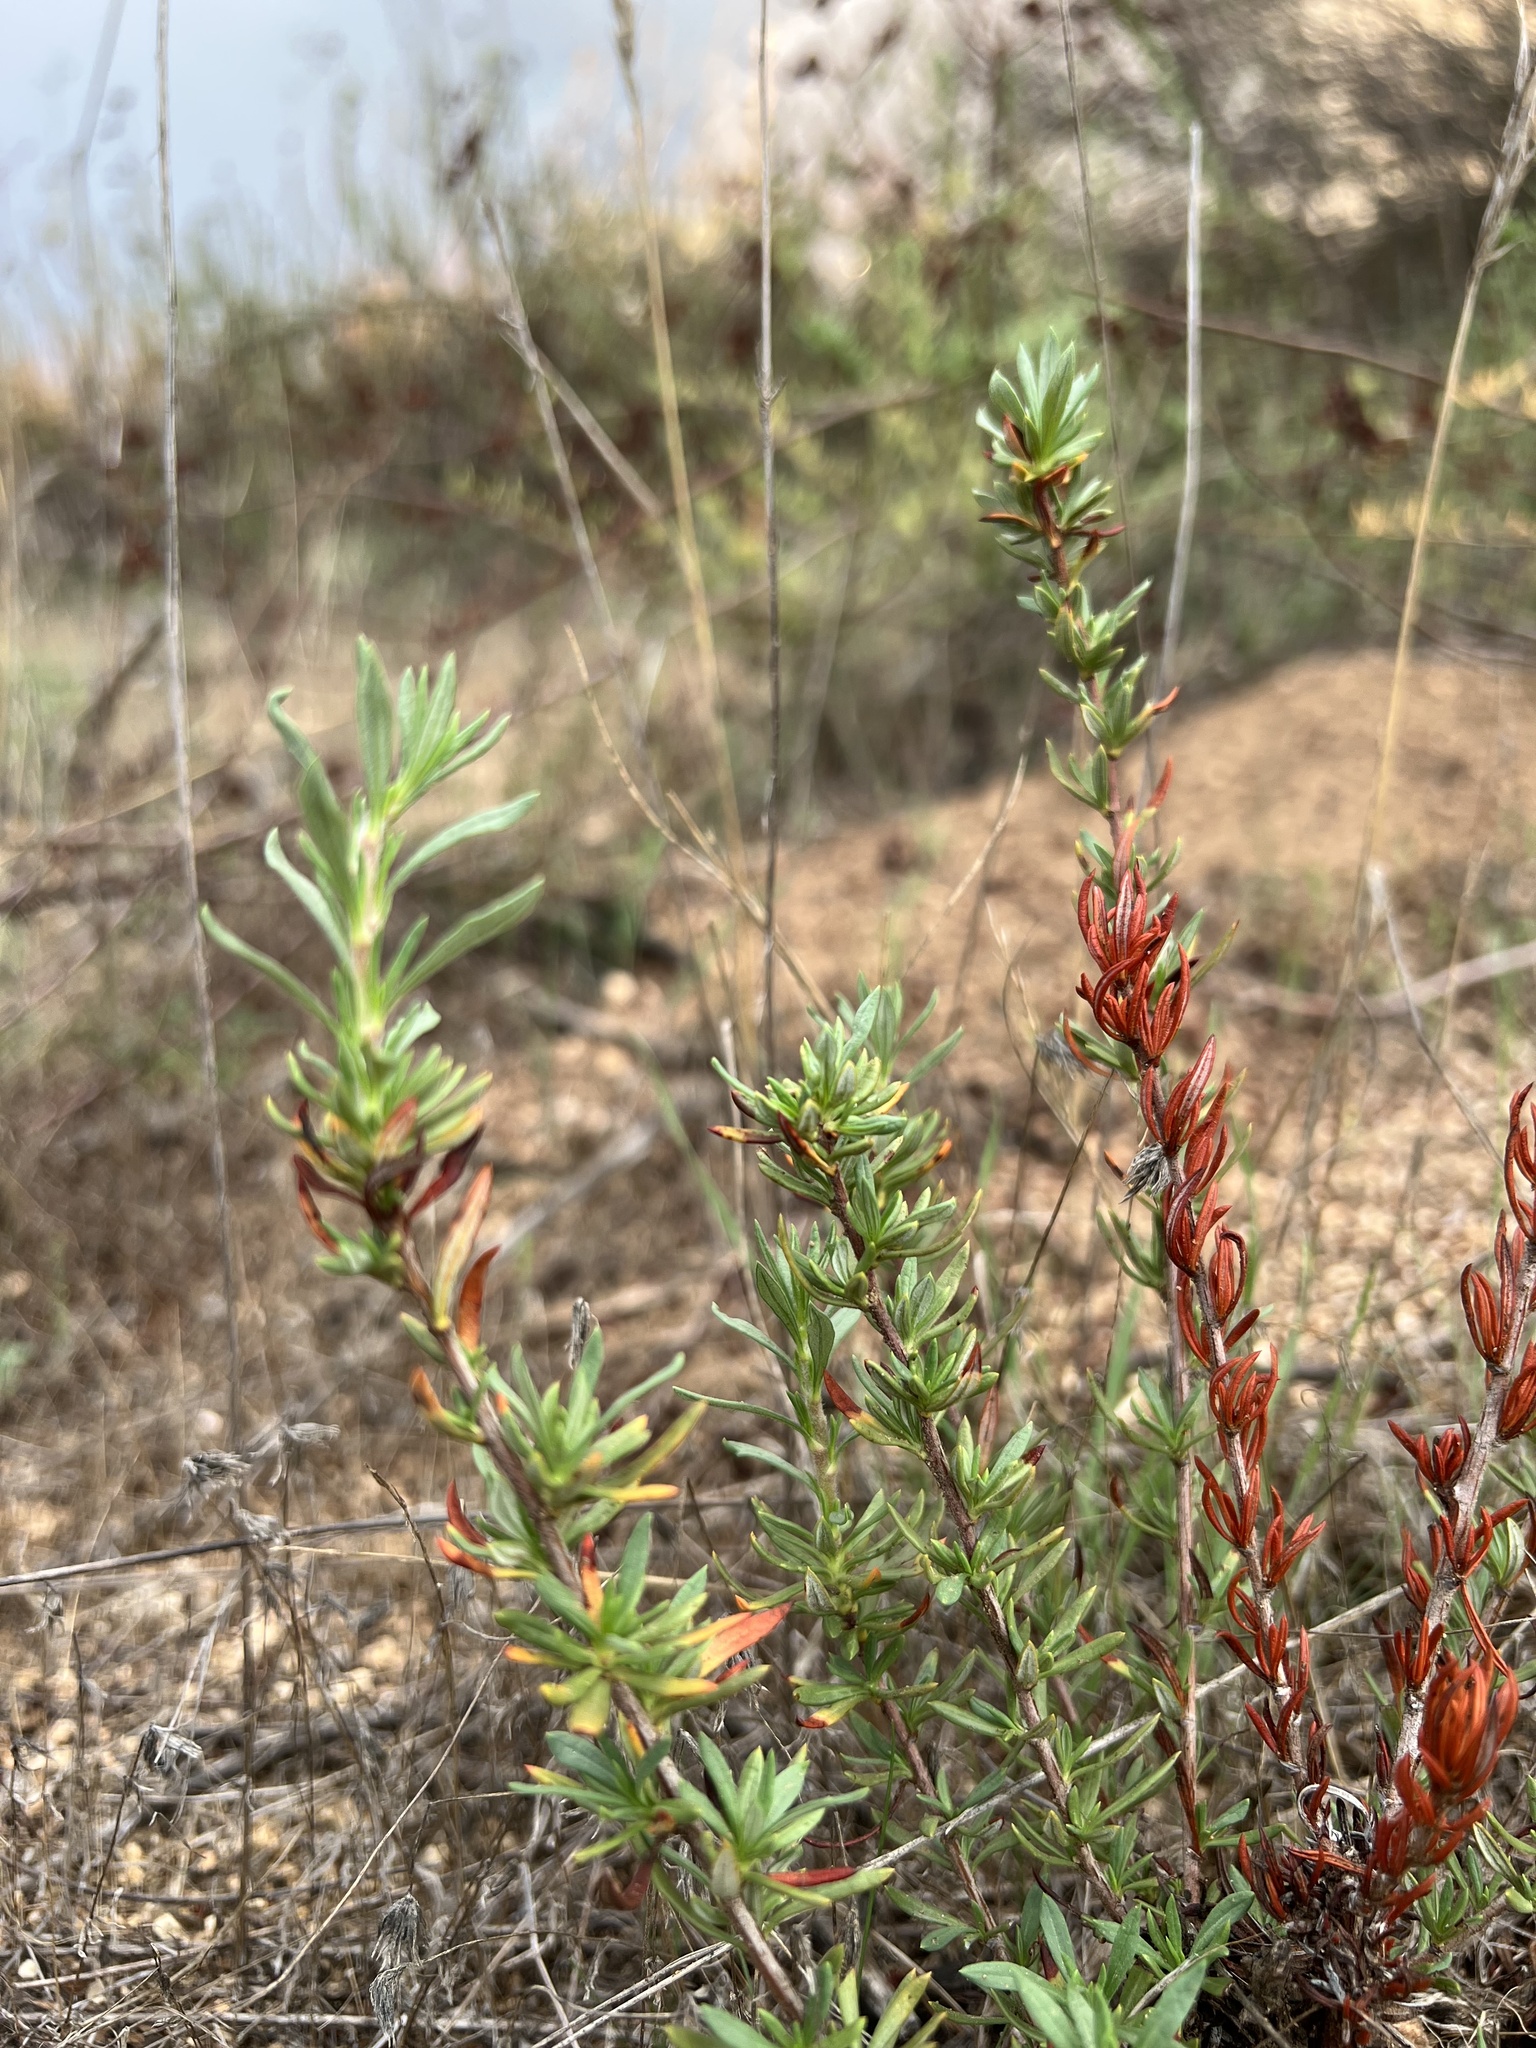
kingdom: Plantae
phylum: Tracheophyta
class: Magnoliopsida
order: Caryophyllales
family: Polygonaceae
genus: Eriogonum
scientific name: Eriogonum fasciculatum
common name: California wild buckwheat
